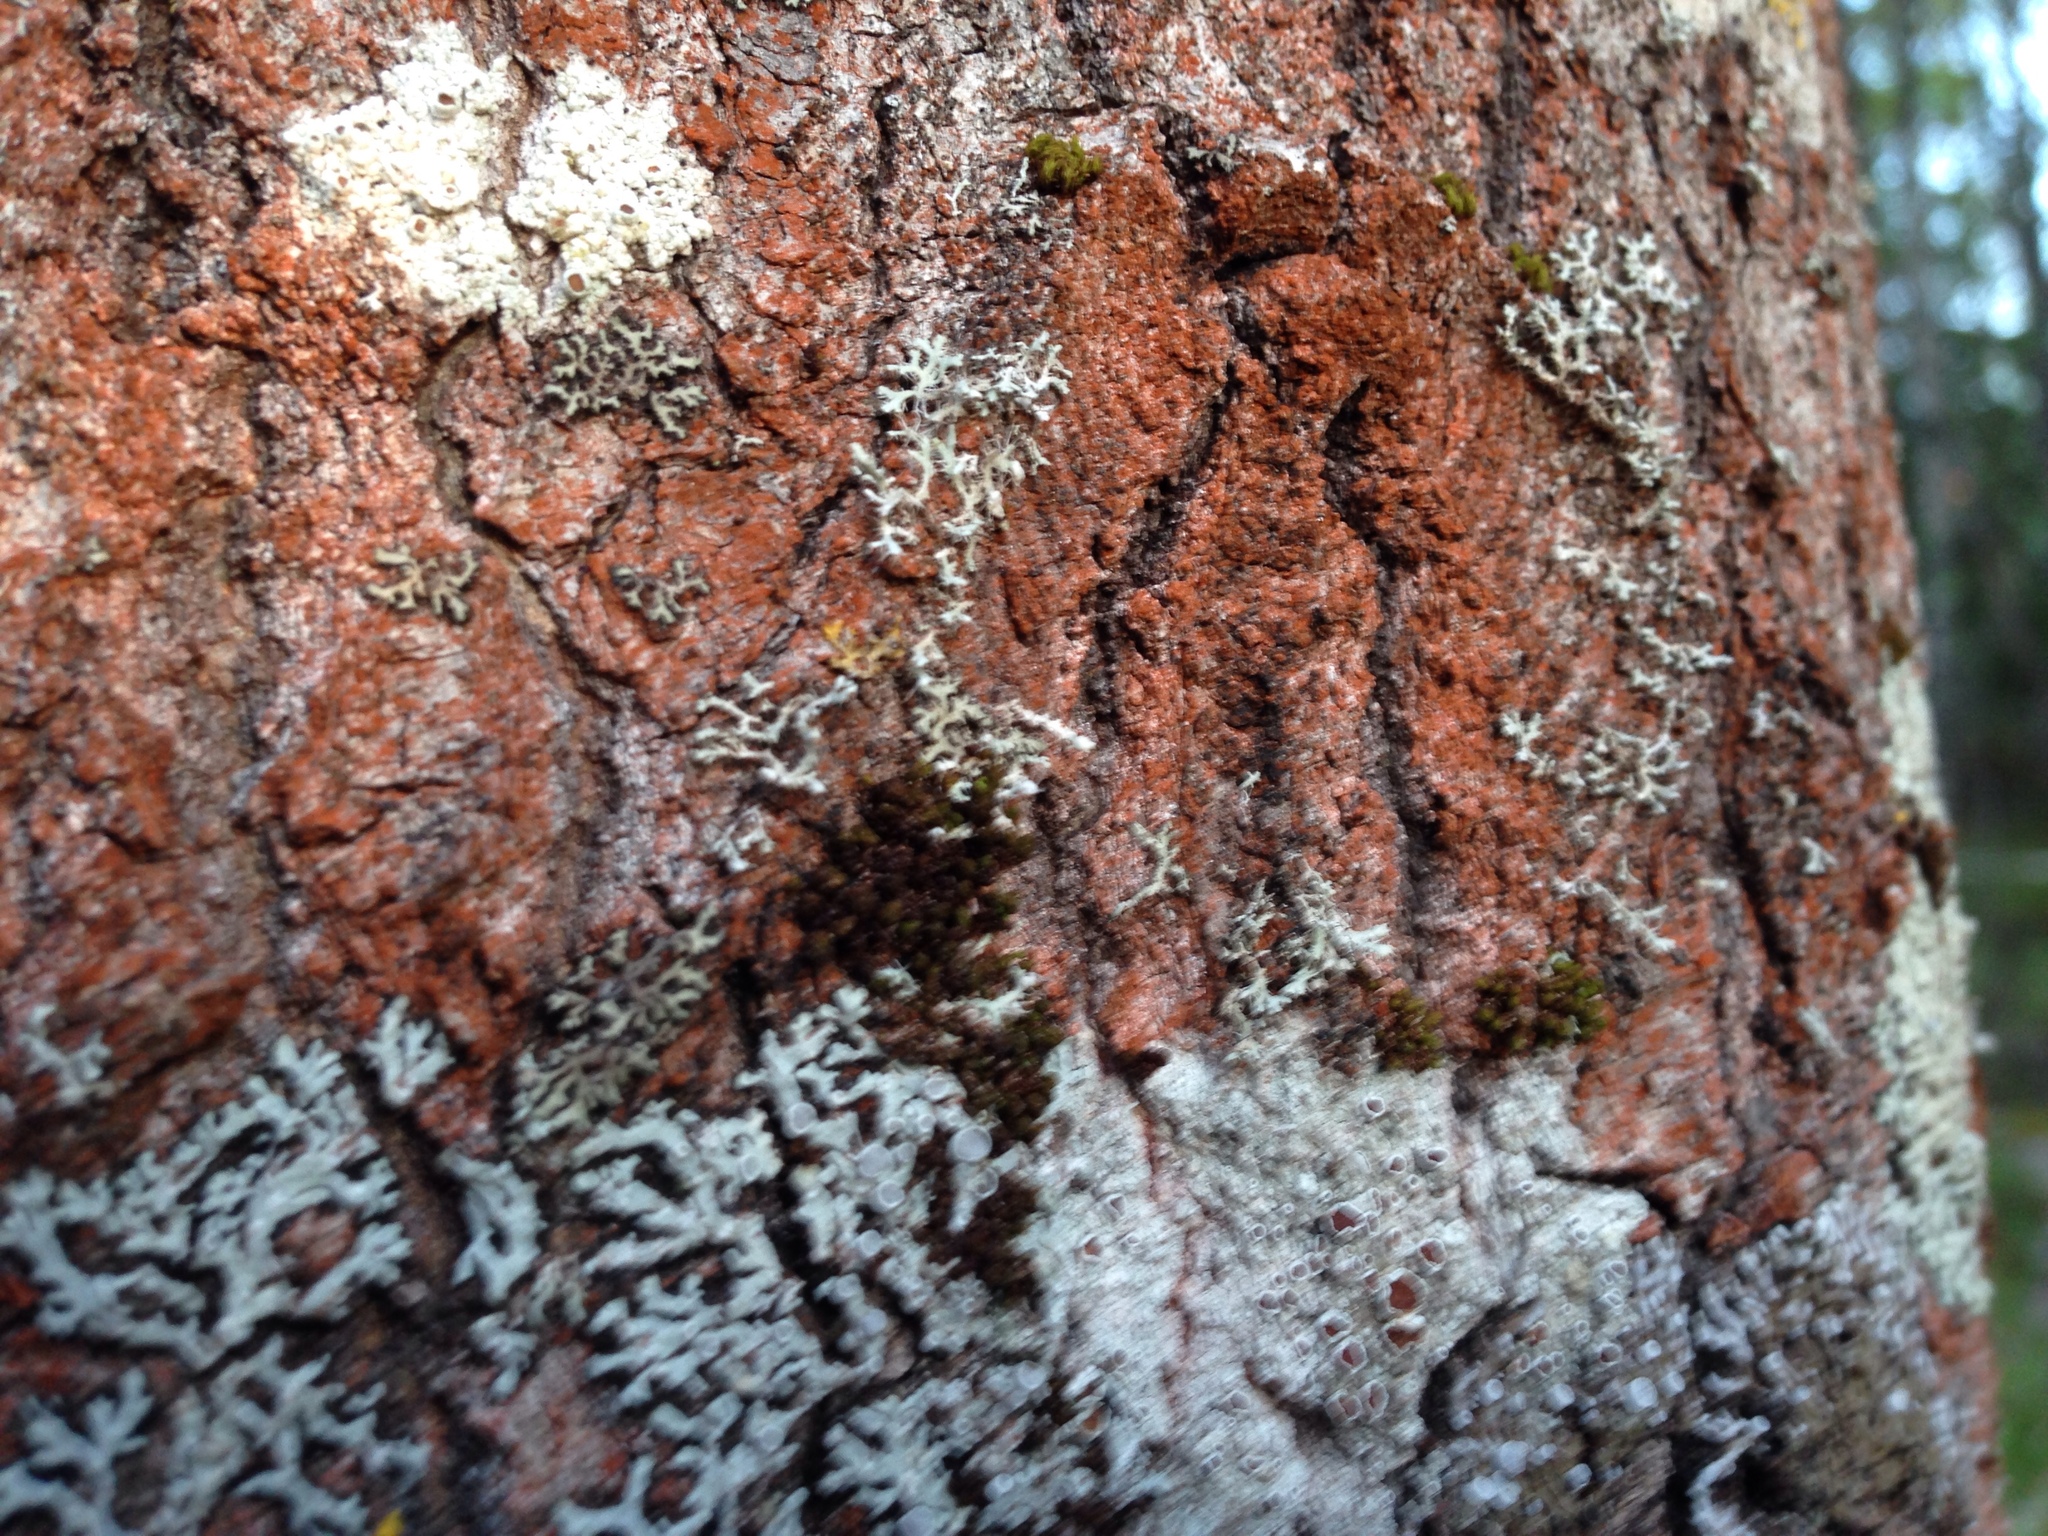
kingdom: Plantae
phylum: Chlorophyta
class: Ulvophyceae
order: Trentepohliales
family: Trentepohliaceae
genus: Trentepohlia
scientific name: Trentepohlia umbrina
